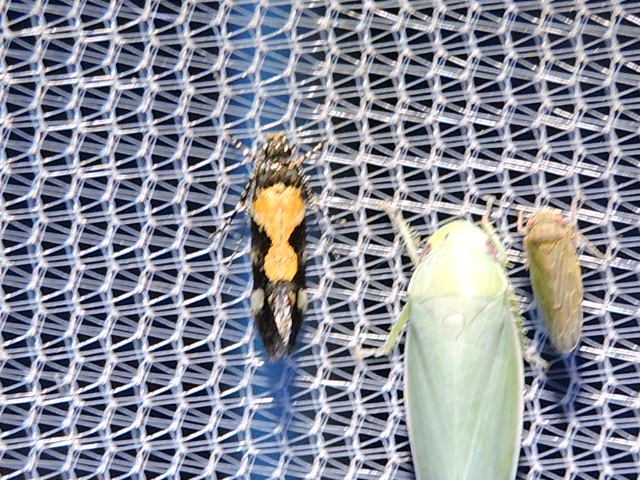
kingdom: Animalia
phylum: Arthropoda
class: Insecta
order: Lepidoptera
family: Gelechiidae
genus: Stegasta
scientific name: Stegasta bosqueella
